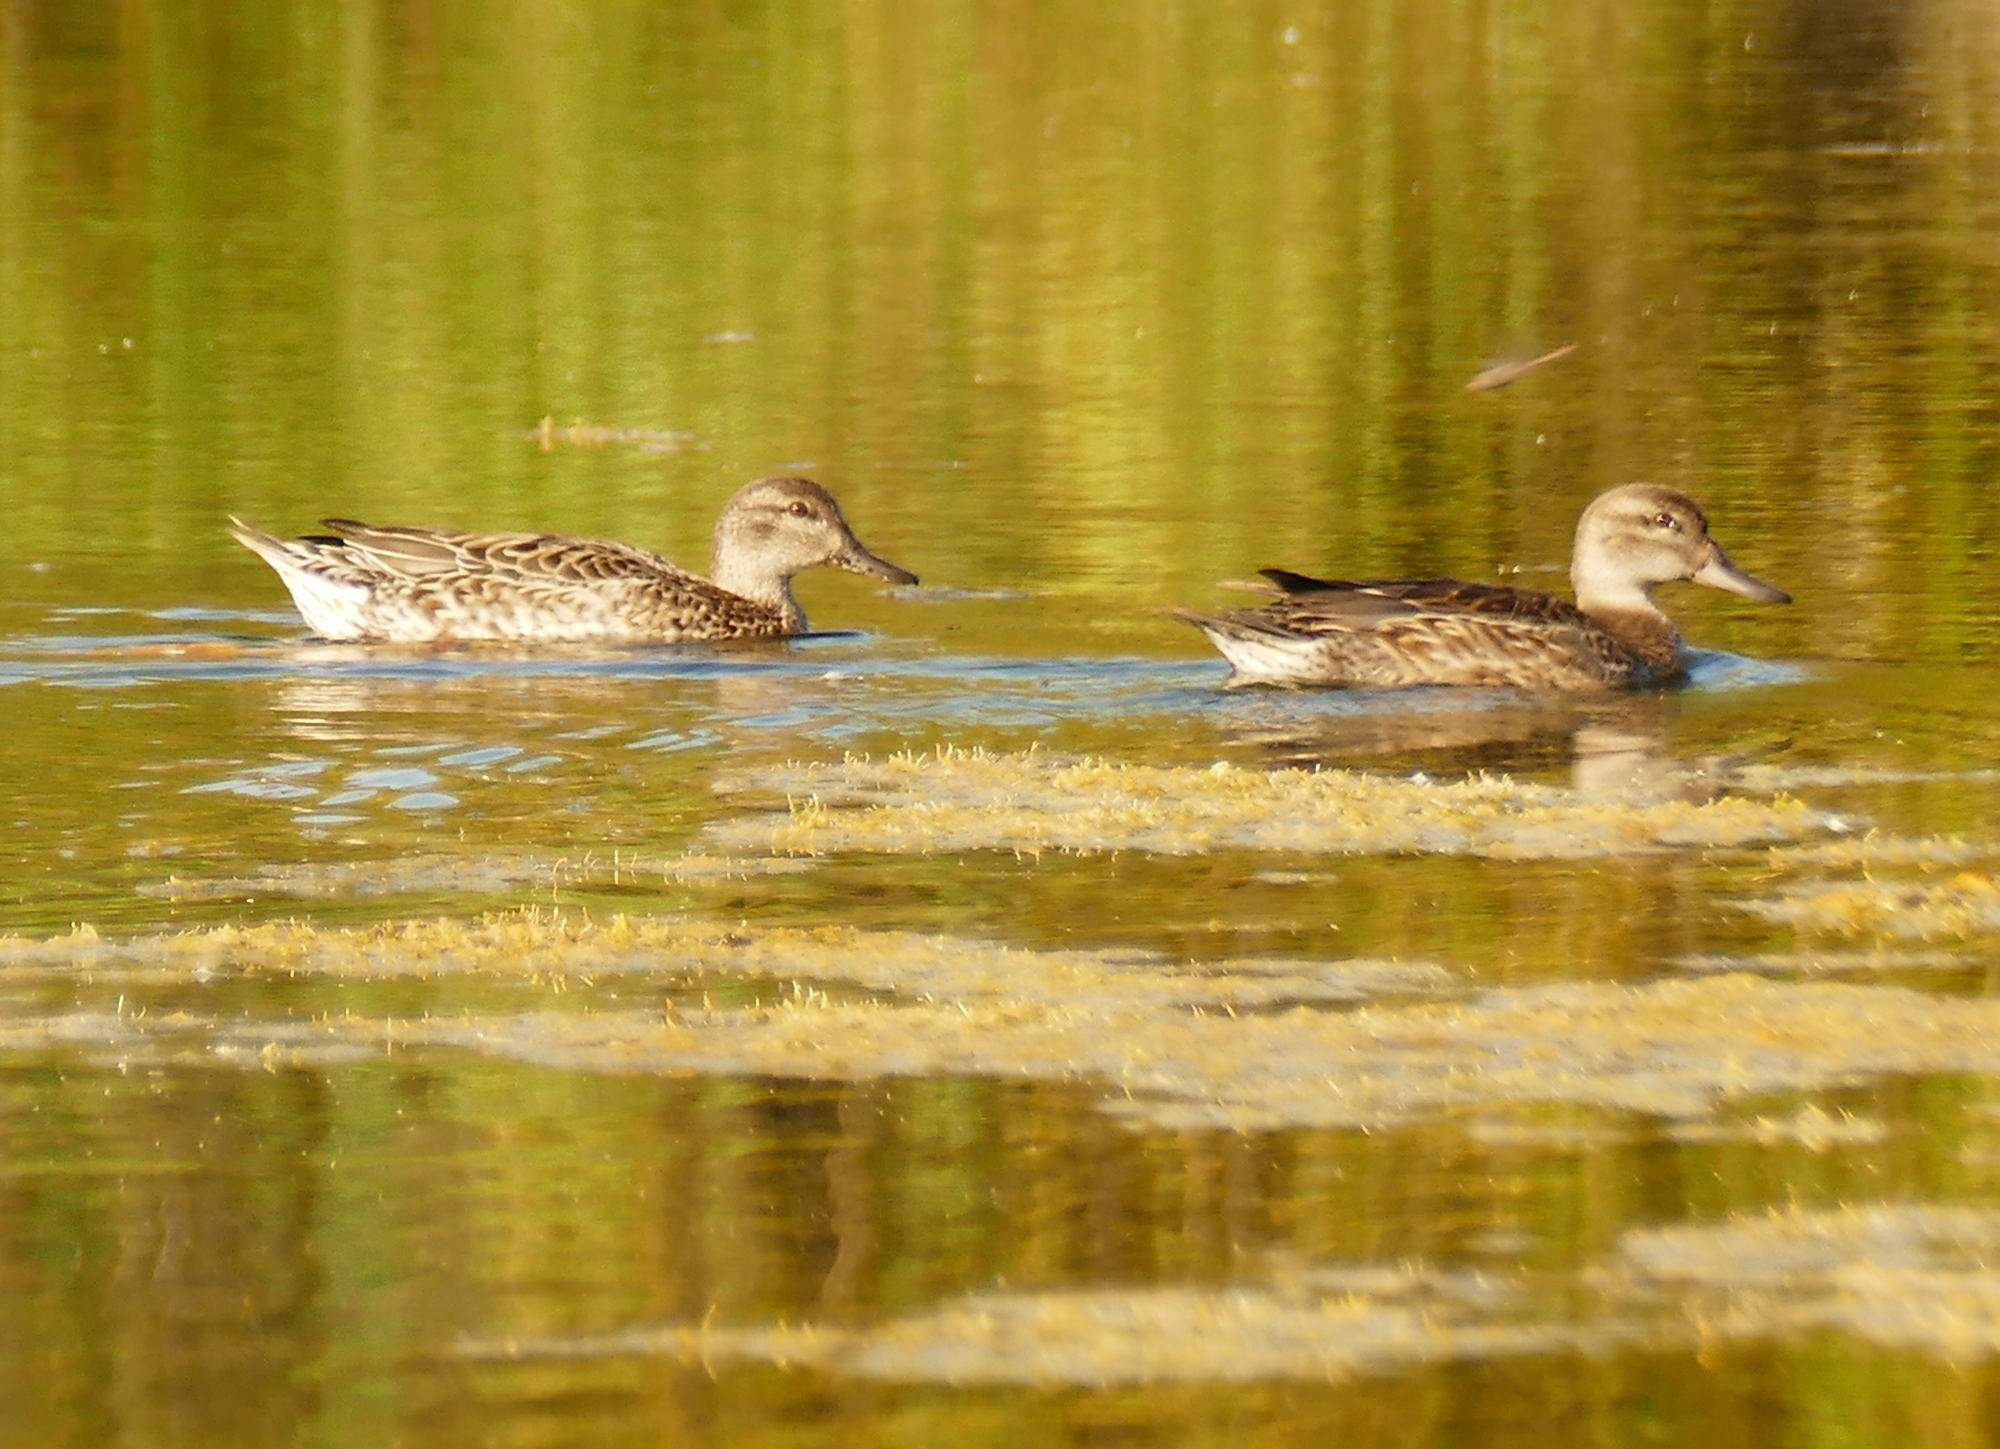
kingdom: Animalia
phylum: Chordata
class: Aves
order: Anseriformes
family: Anatidae
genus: Anas
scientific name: Anas crecca
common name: Eurasian teal
